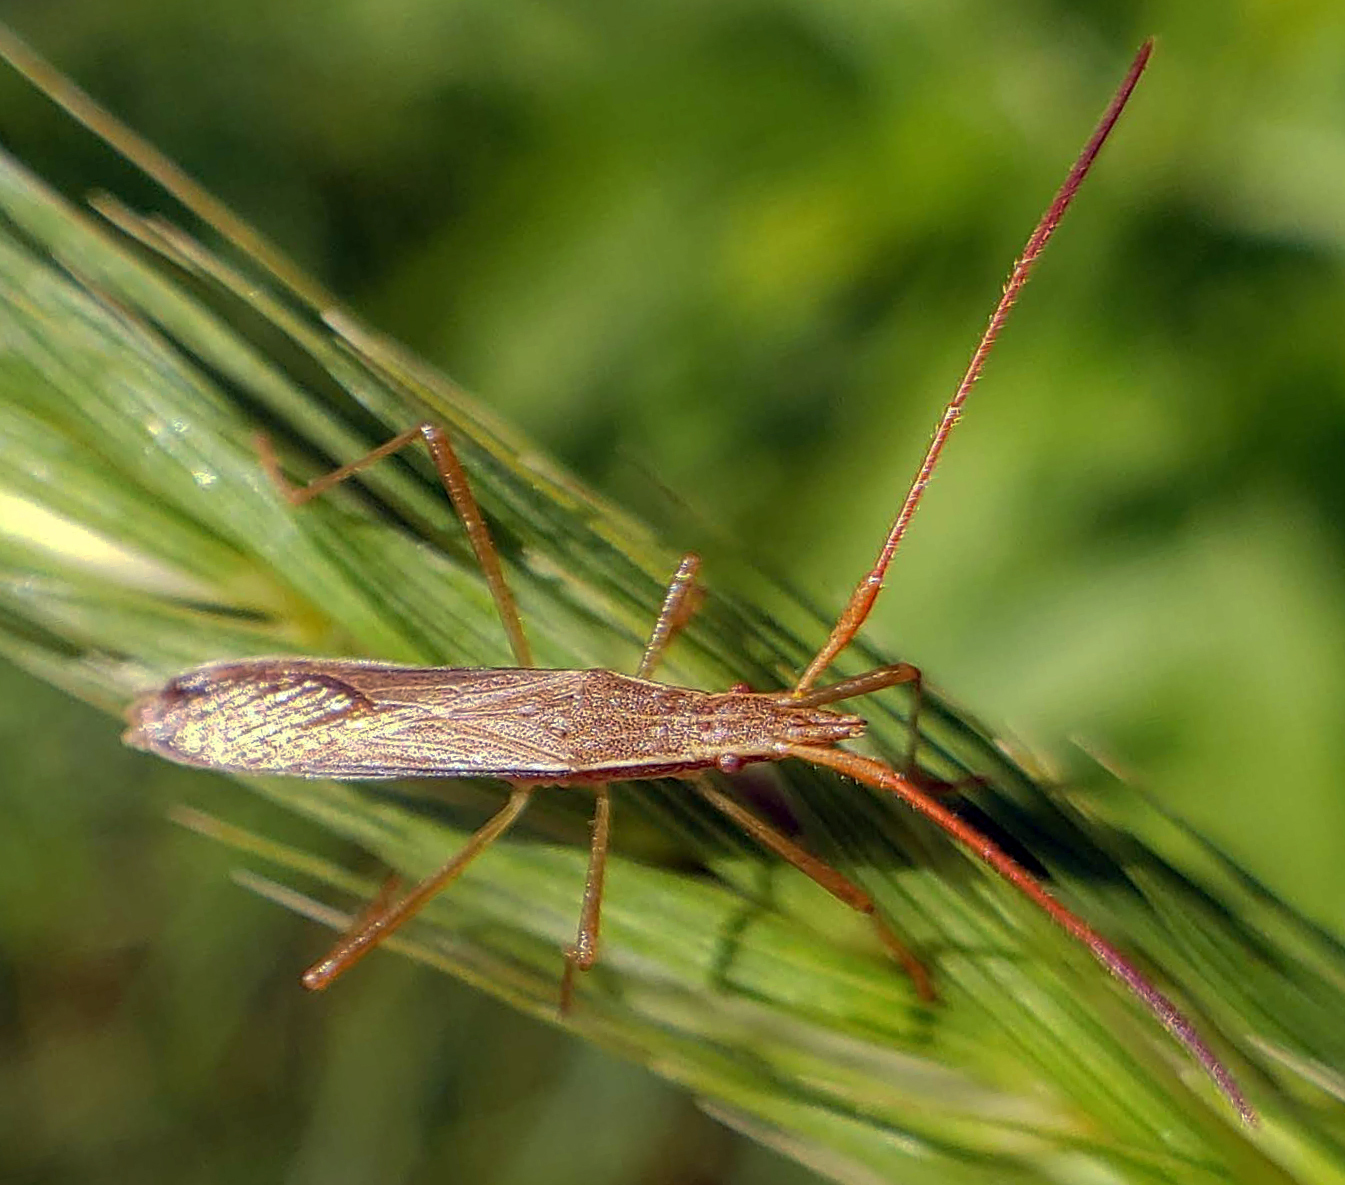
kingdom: Animalia
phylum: Arthropoda
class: Insecta
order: Hemiptera
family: Alydidae
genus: Protenor
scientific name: Protenor belfragei
